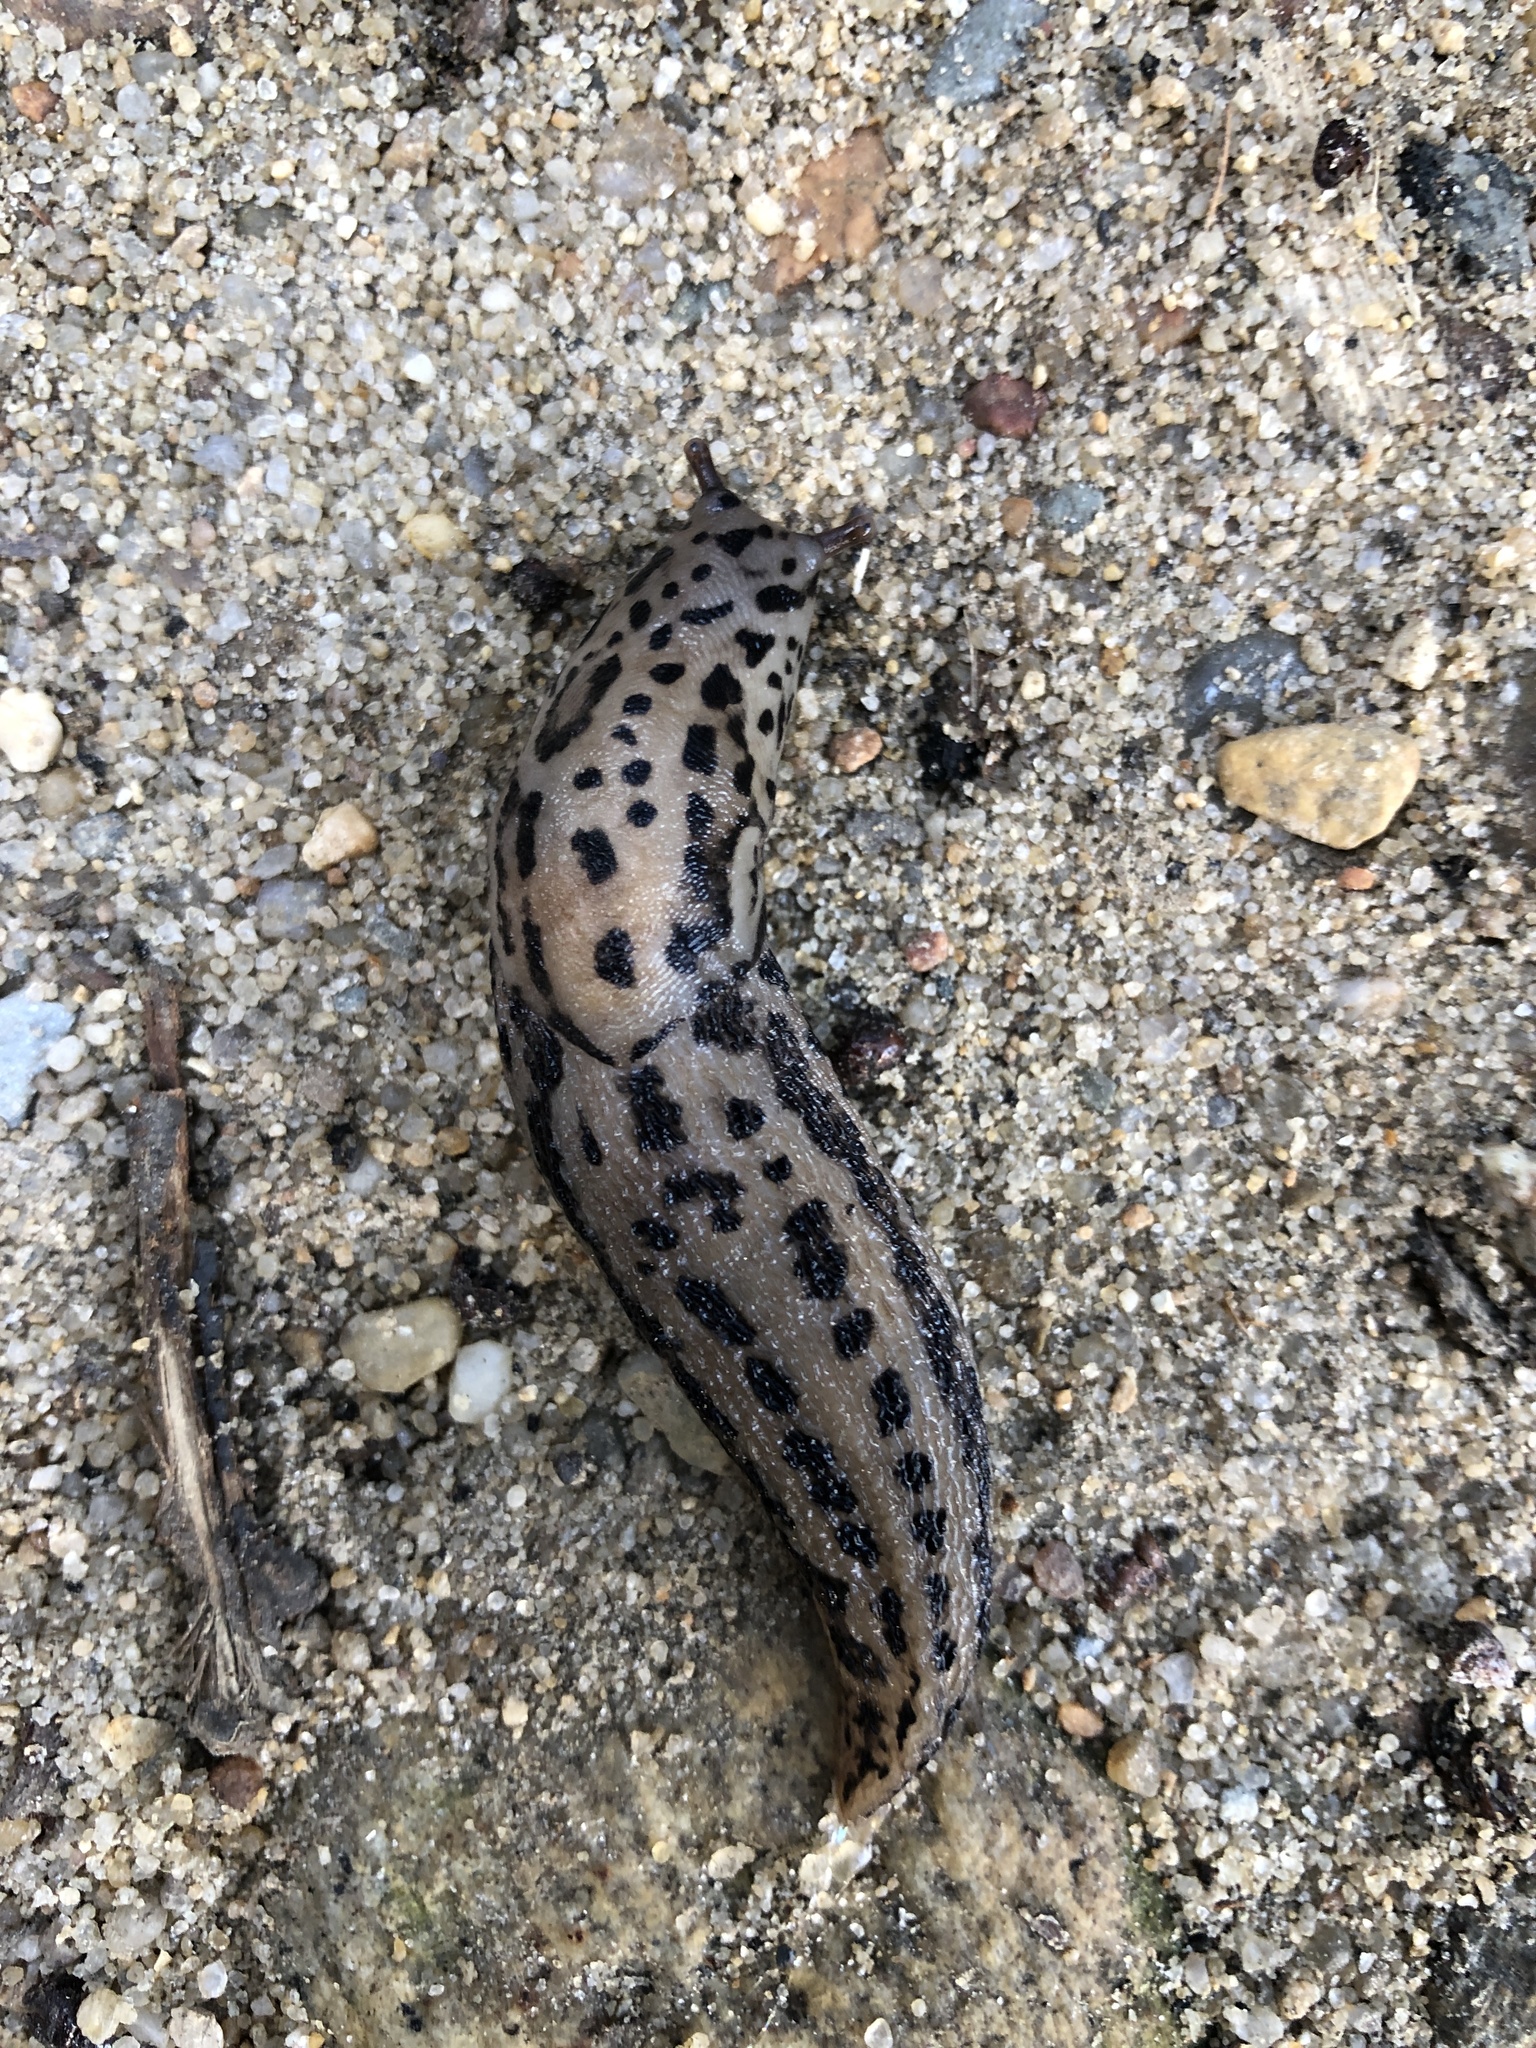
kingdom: Animalia
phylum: Mollusca
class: Gastropoda
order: Stylommatophora
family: Limacidae
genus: Limax
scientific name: Limax maximus
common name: Great grey slug
